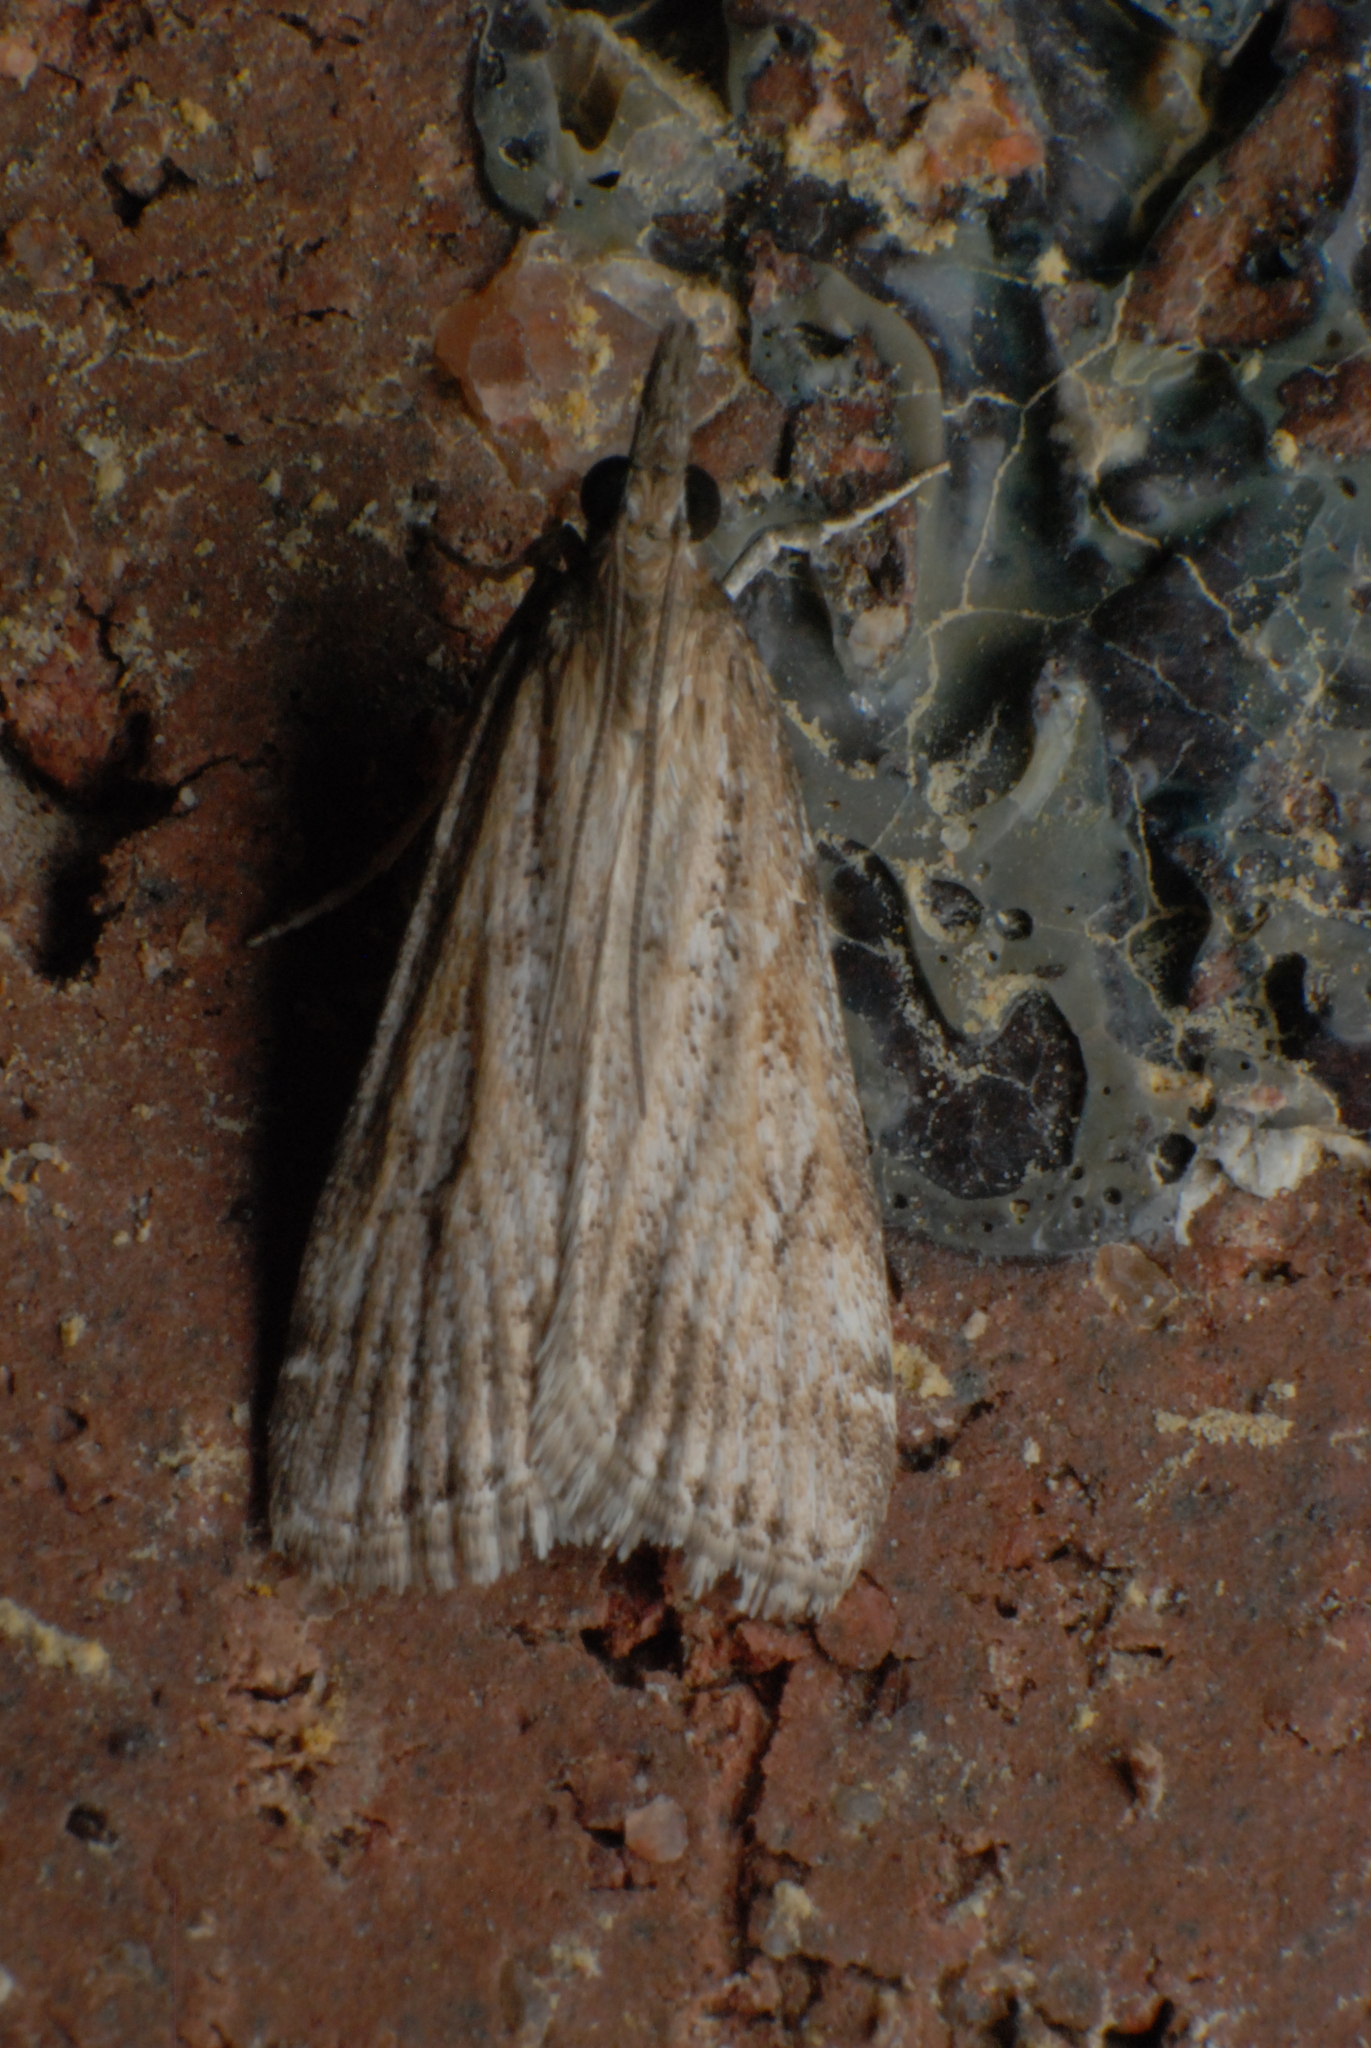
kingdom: Animalia
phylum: Arthropoda
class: Insecta
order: Lepidoptera
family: Crambidae
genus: Eudonia
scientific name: Eudonia cleodoralis
